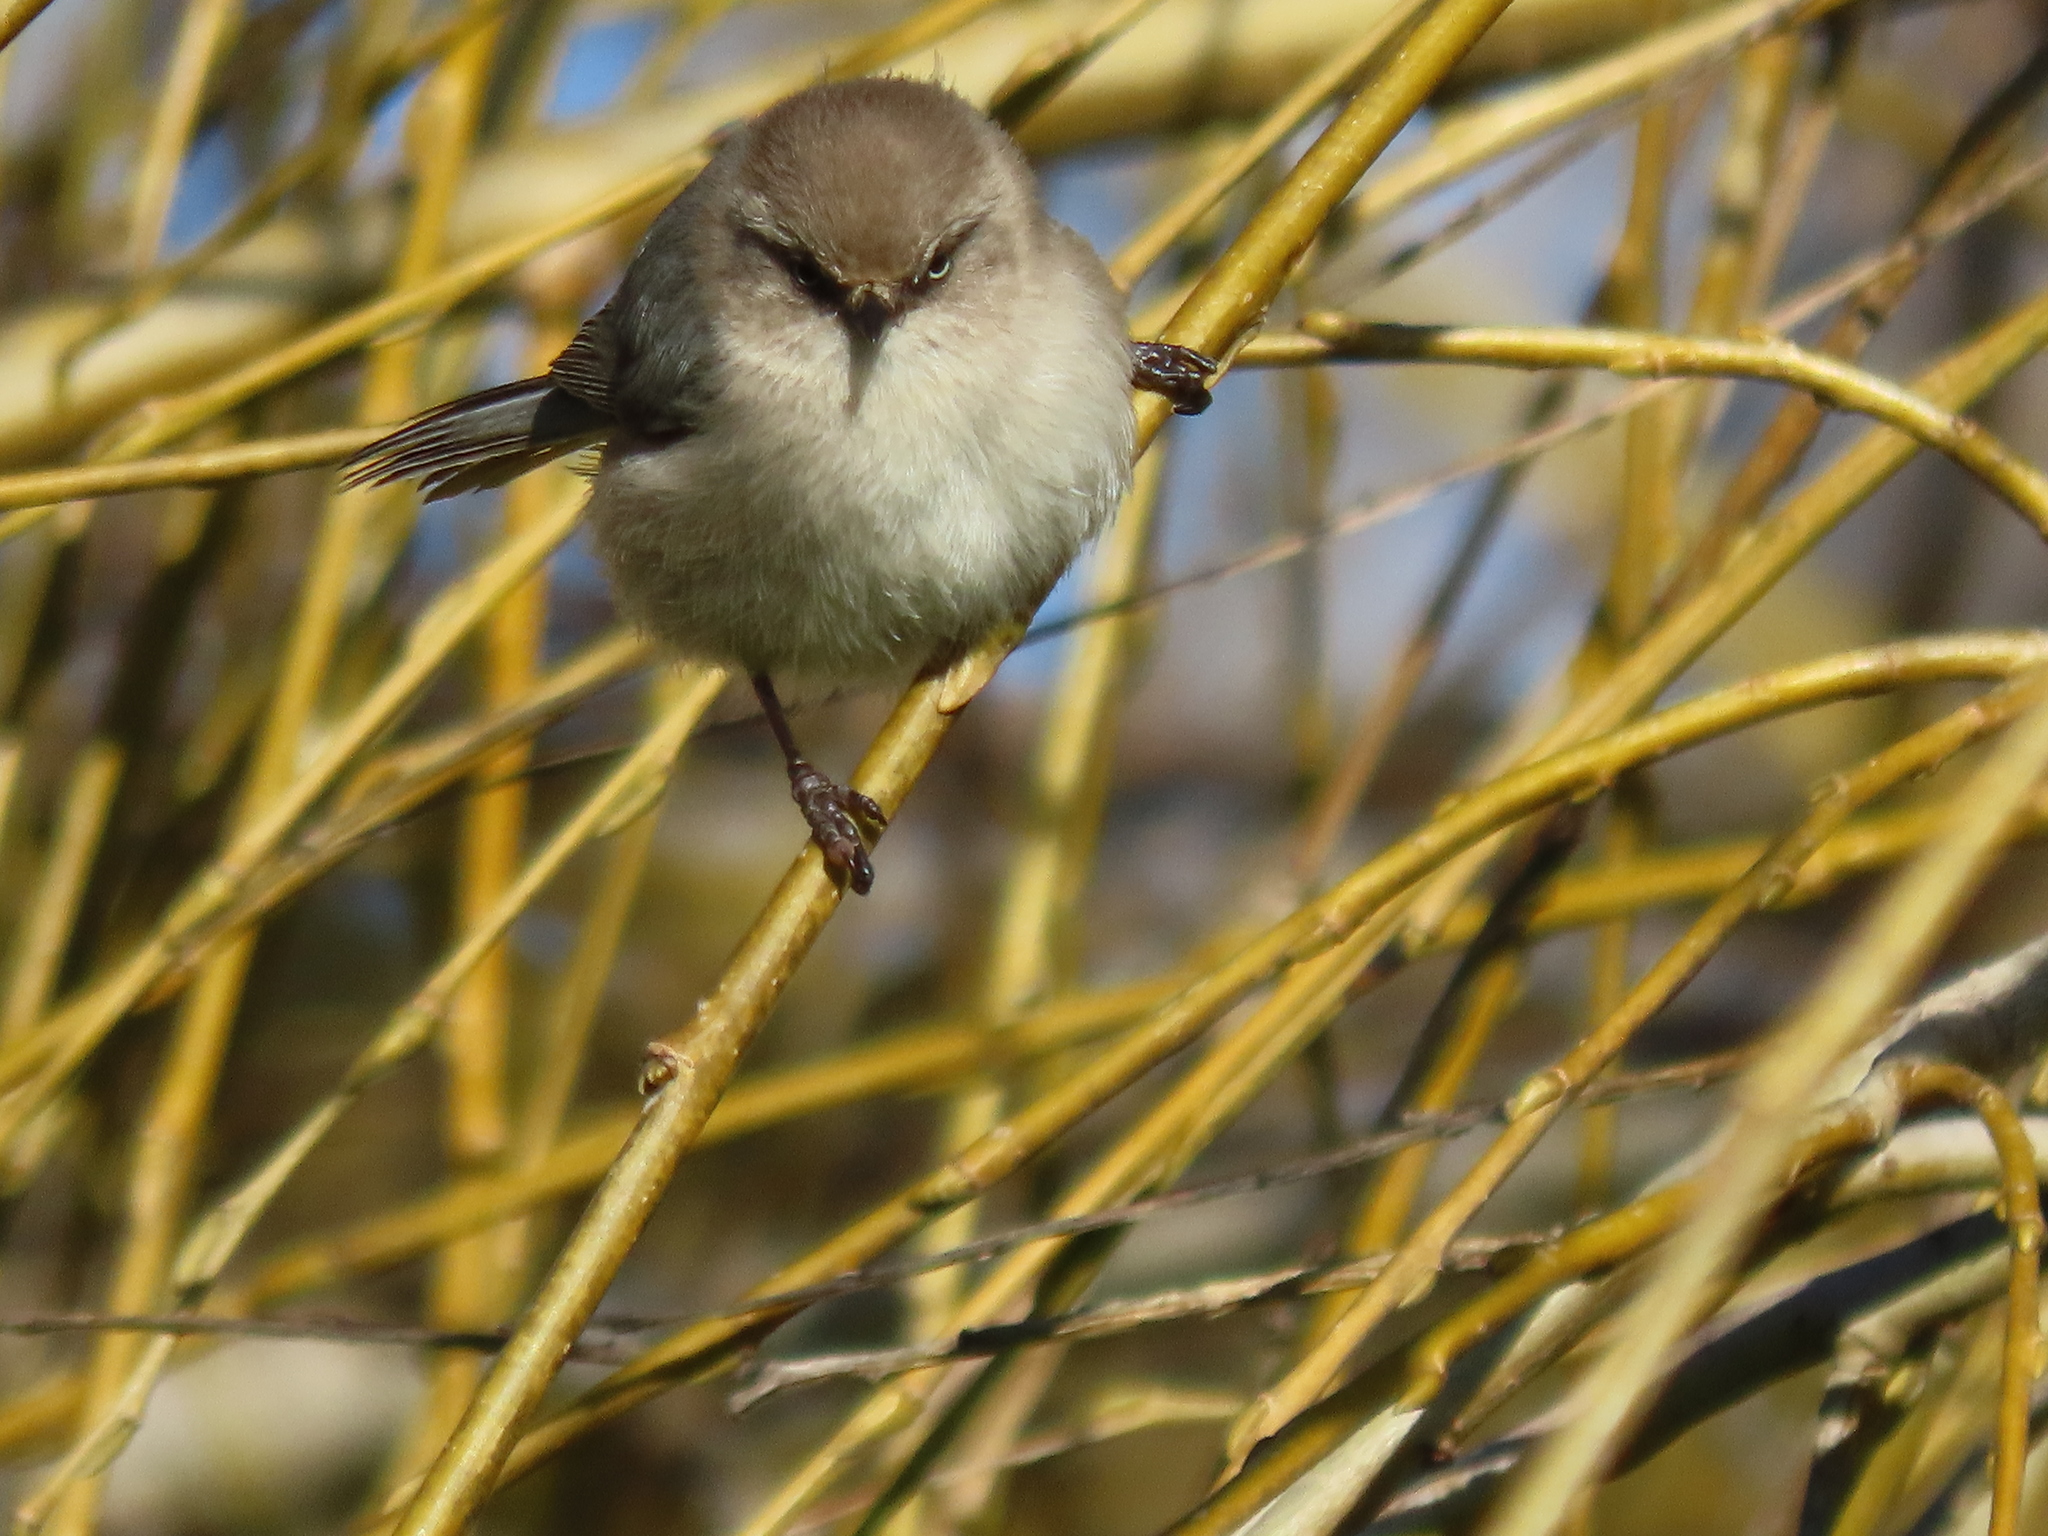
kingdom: Animalia
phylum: Chordata
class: Aves
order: Passeriformes
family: Aegithalidae
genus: Psaltriparus
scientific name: Psaltriparus minimus
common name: American bushtit
